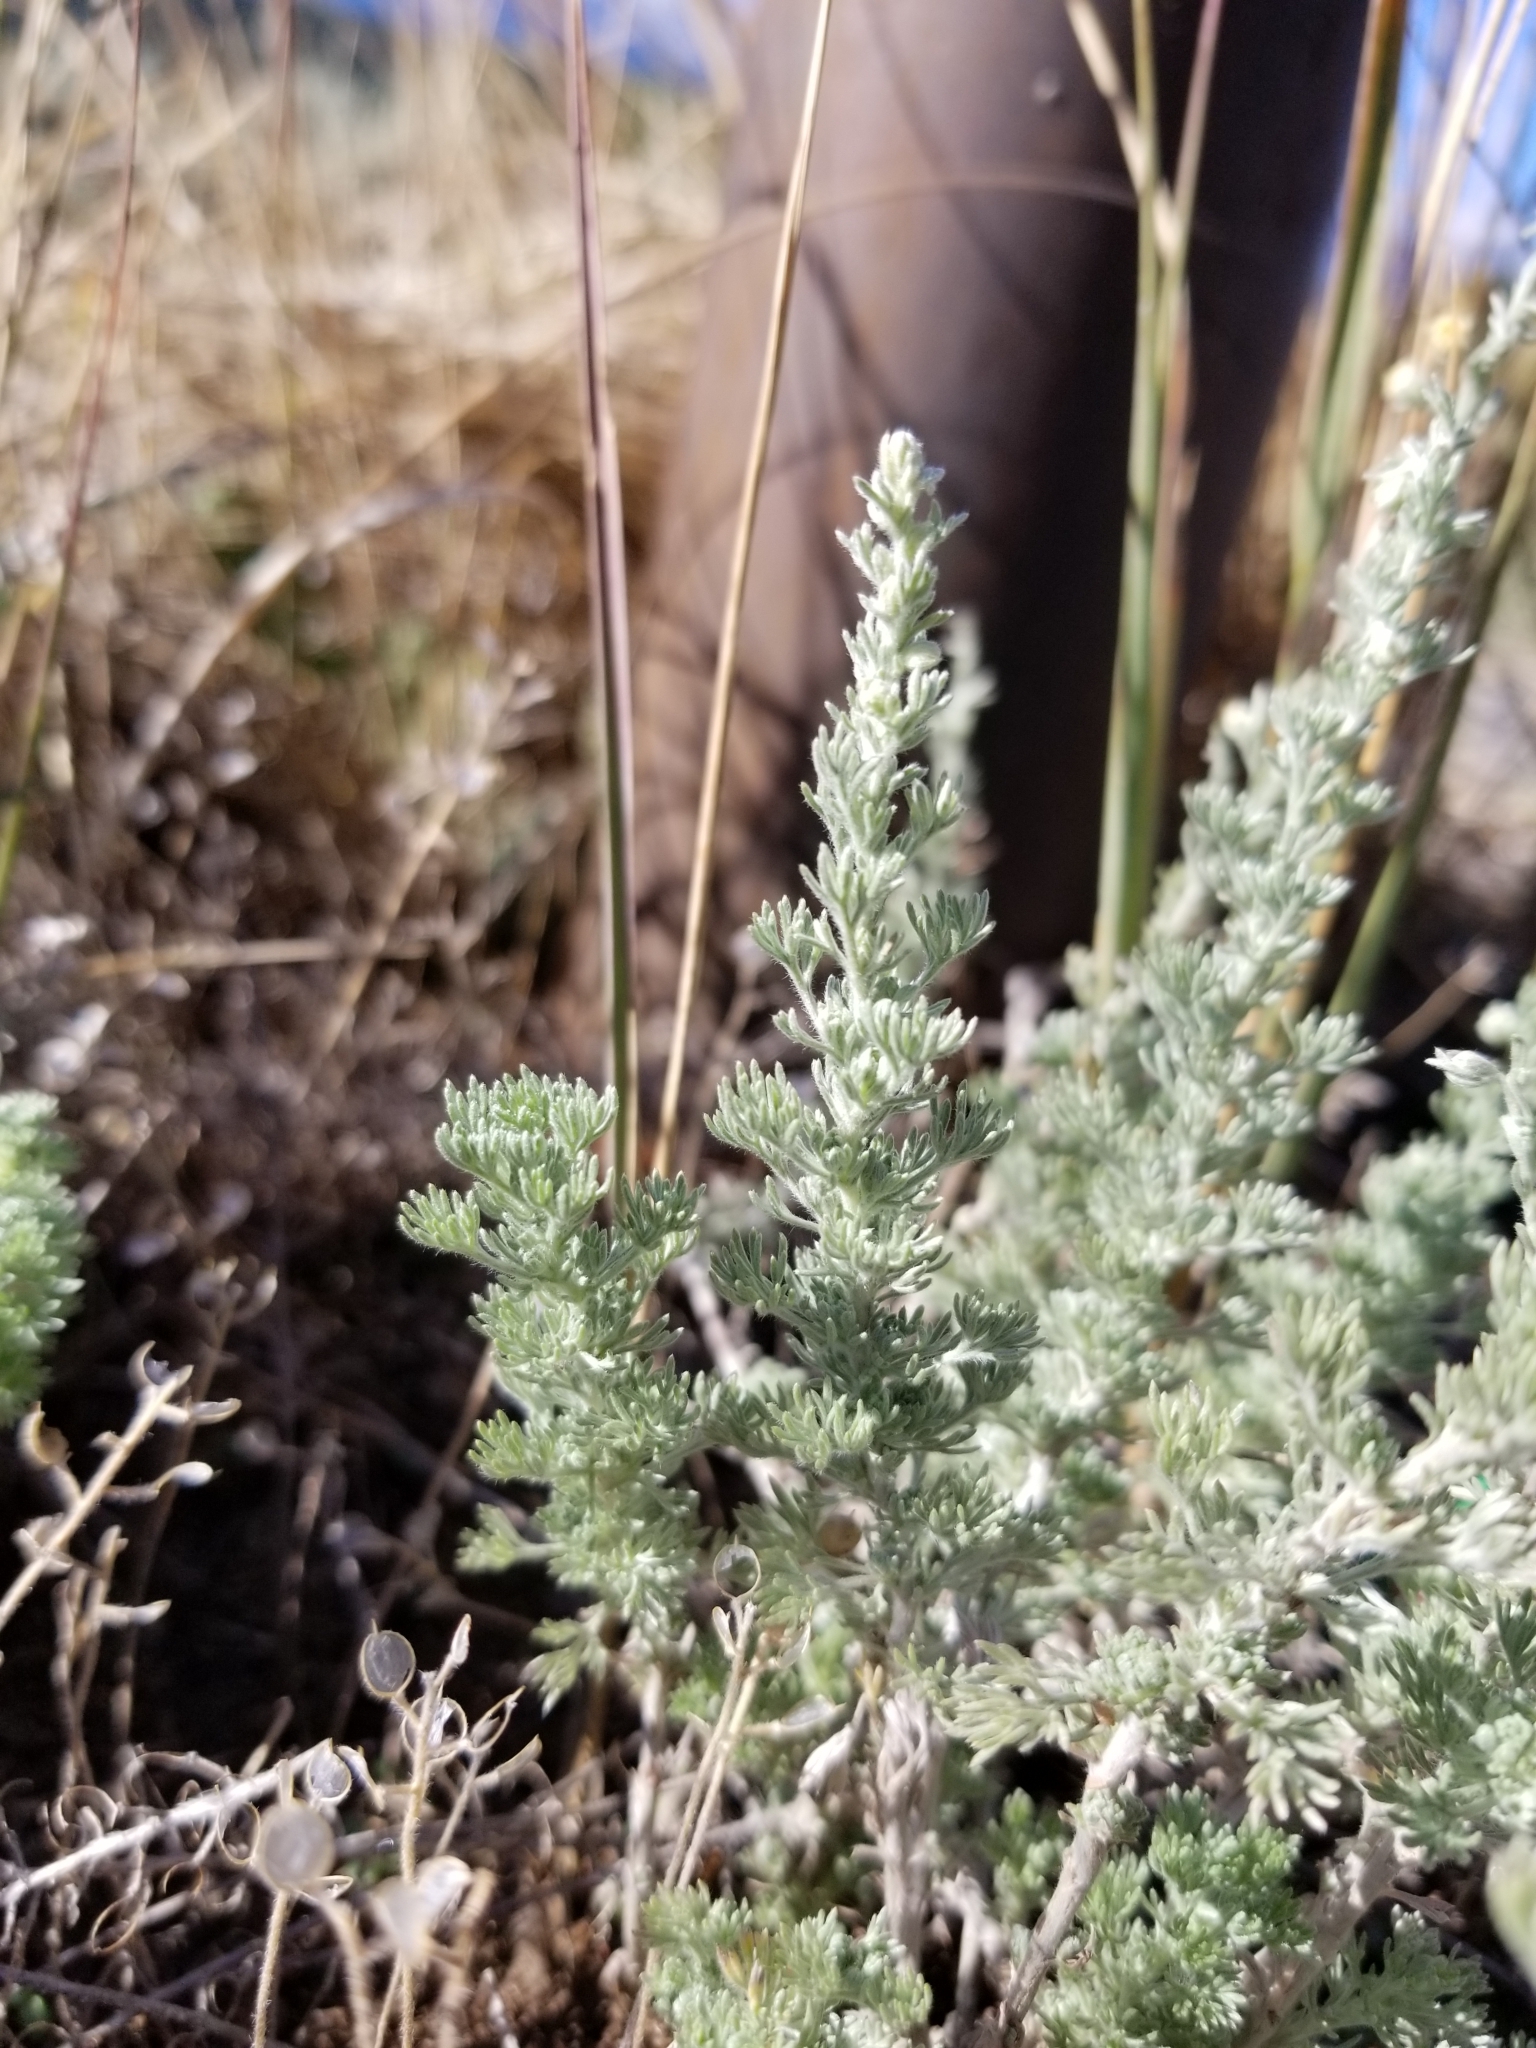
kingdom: Plantae
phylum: Tracheophyta
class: Magnoliopsida
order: Asterales
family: Asteraceae
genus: Artemisia
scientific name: Artemisia frigida
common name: Prairie sagewort
